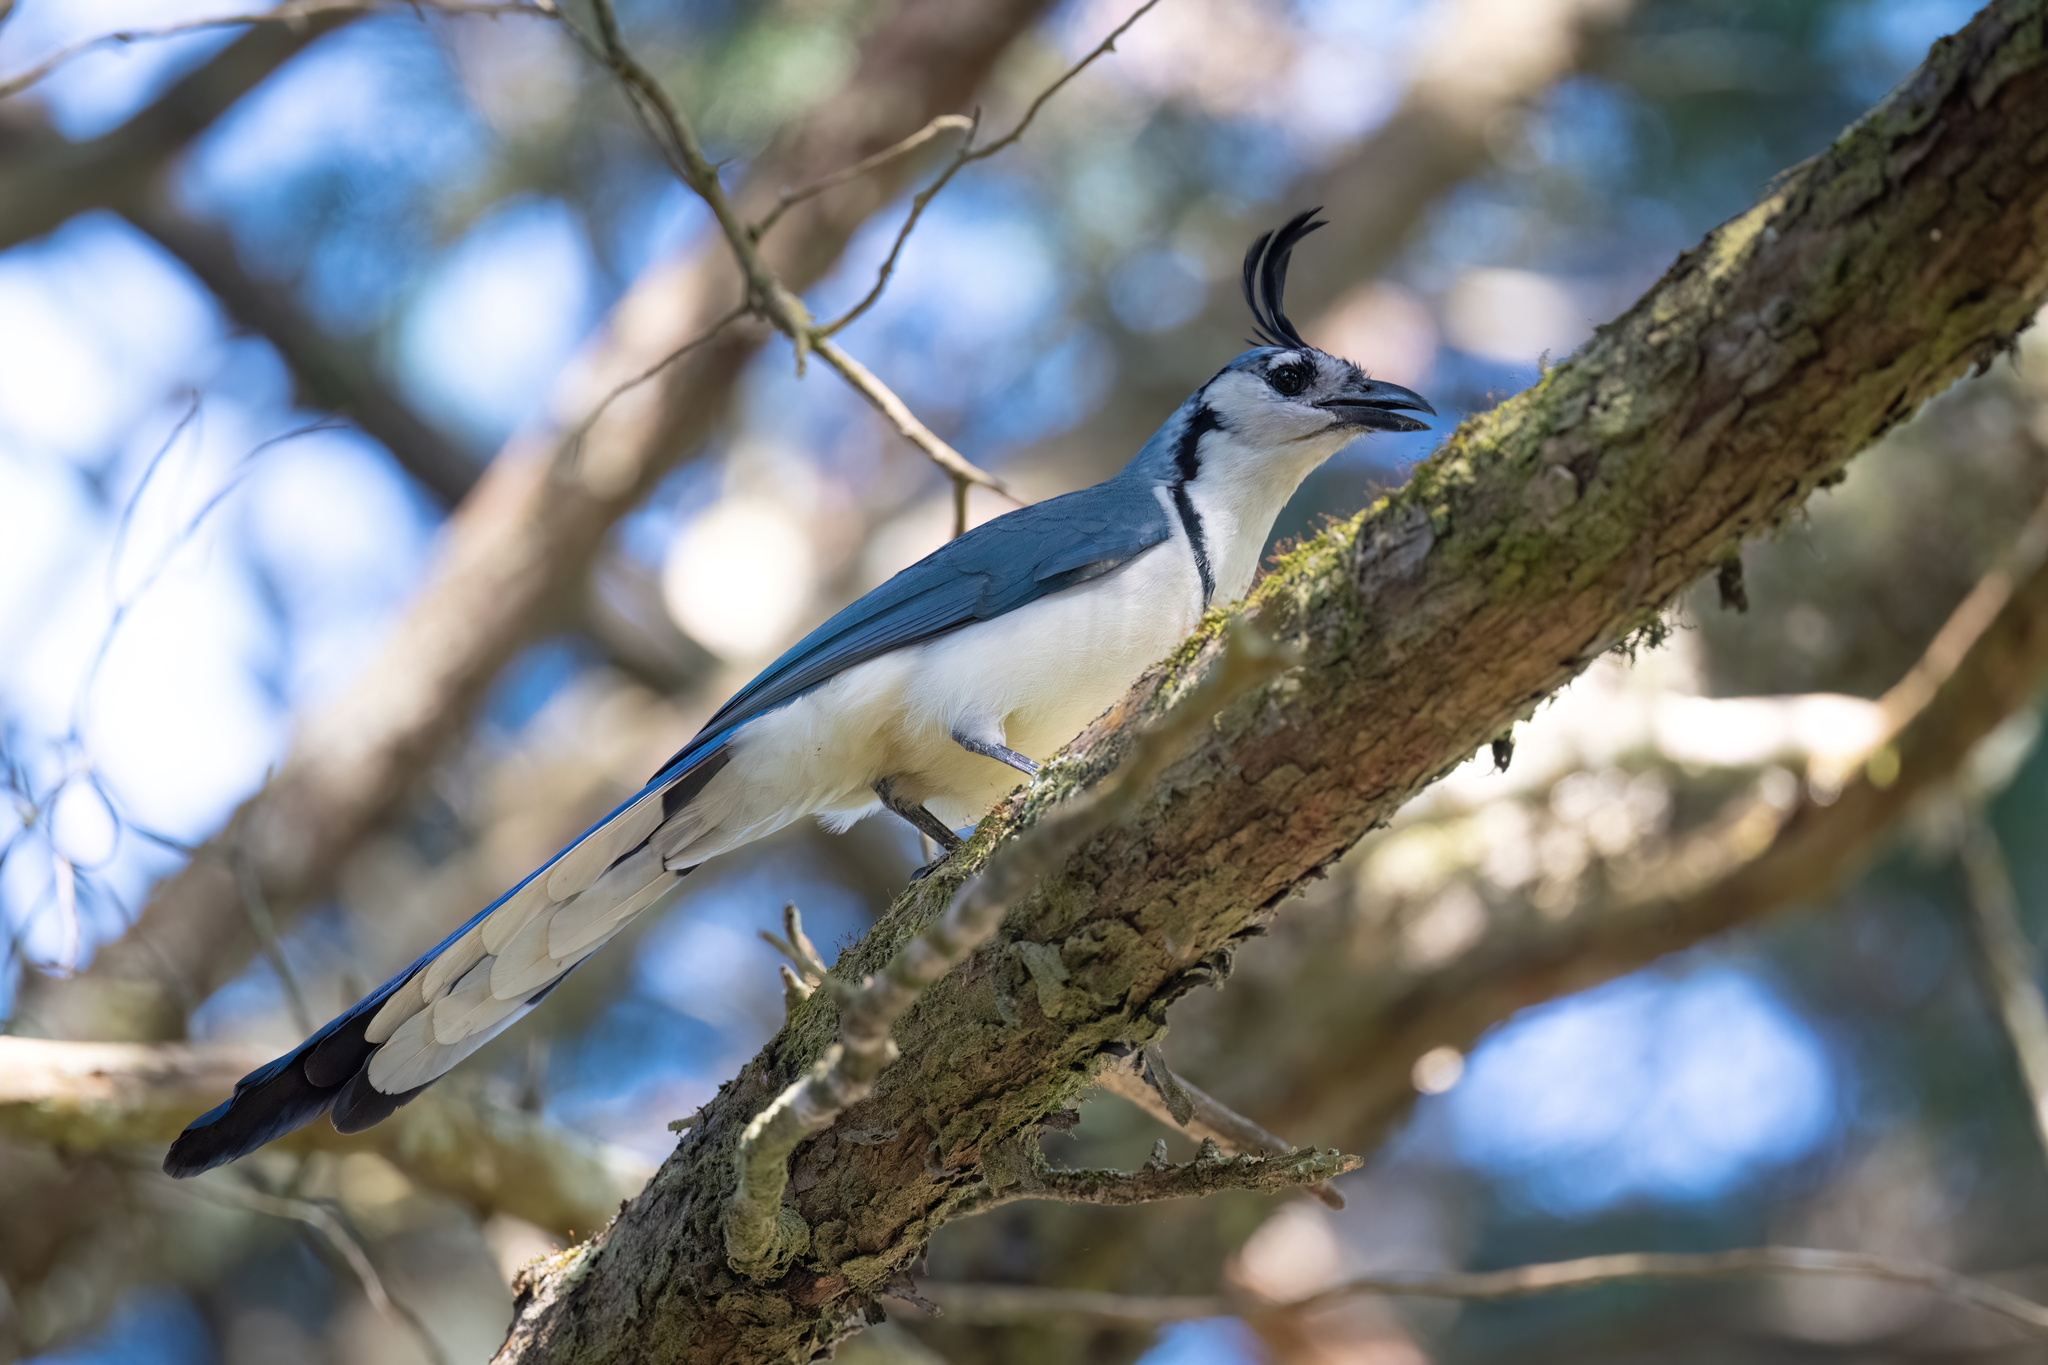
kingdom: Animalia
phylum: Chordata
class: Aves
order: Passeriformes
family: Corvidae
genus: Calocitta
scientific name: Calocitta formosa
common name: White-throated magpie-jay
